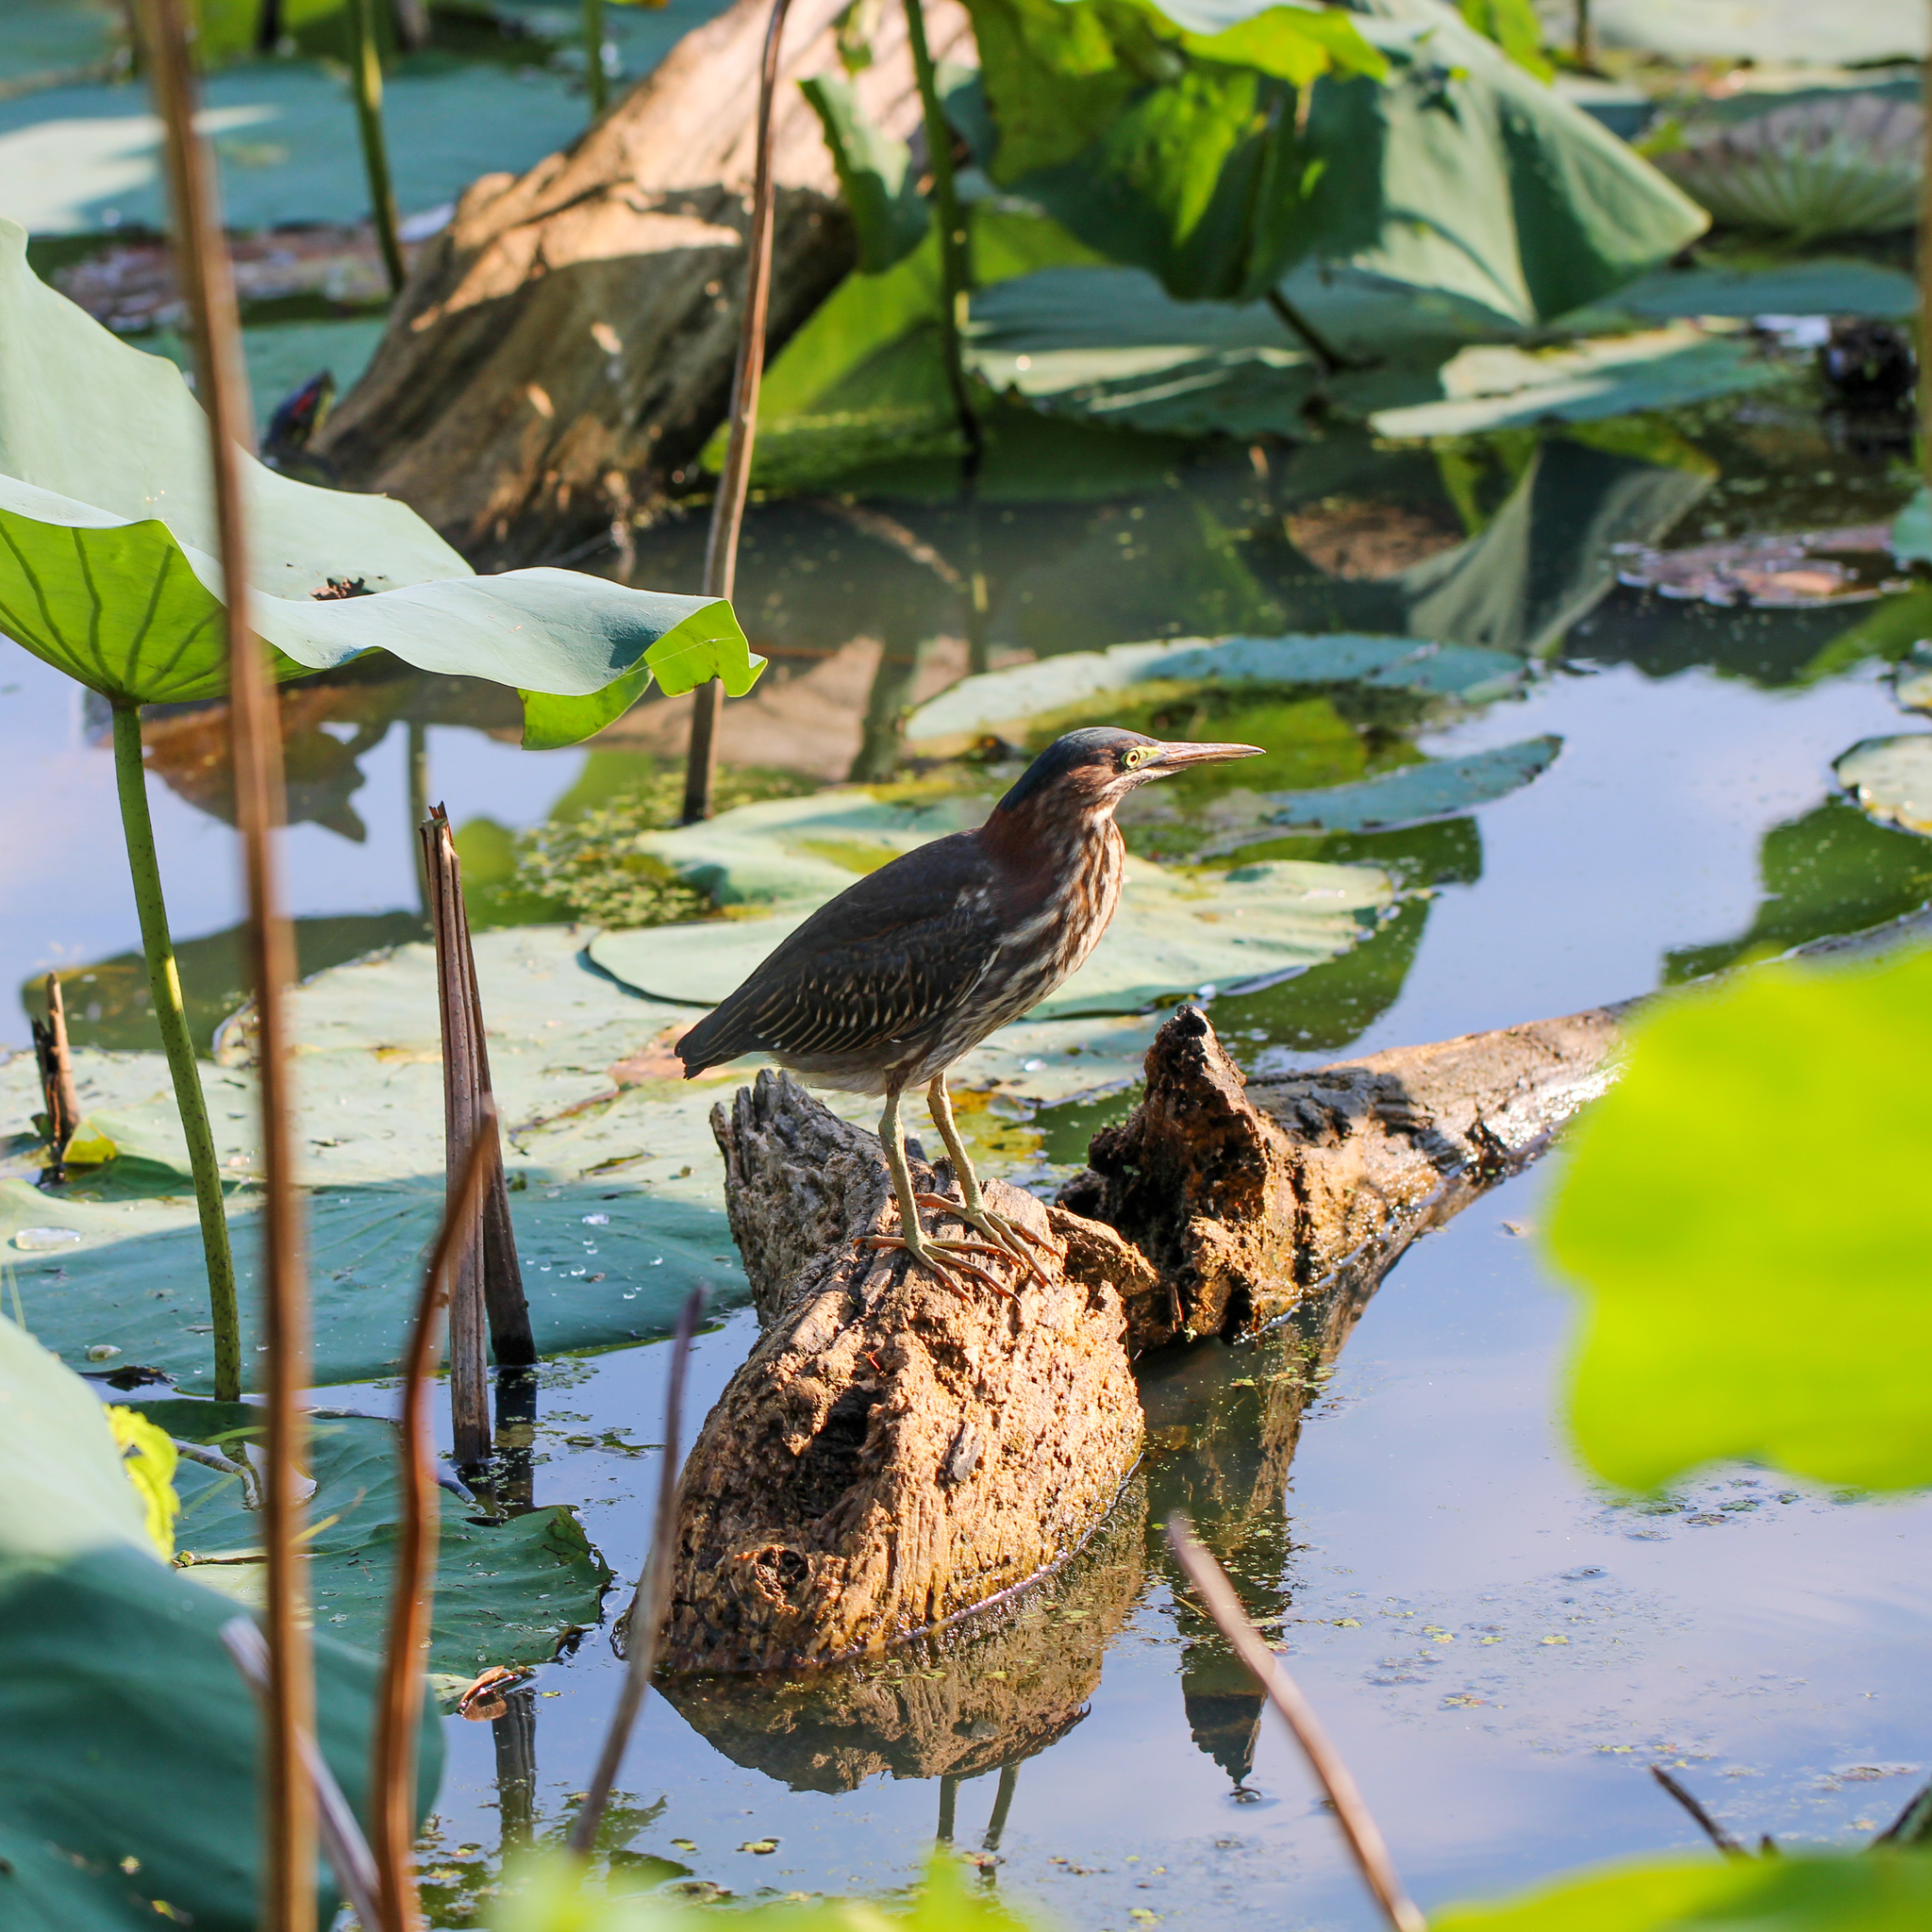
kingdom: Animalia
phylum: Chordata
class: Aves
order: Pelecaniformes
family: Ardeidae
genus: Butorides
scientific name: Butorides virescens
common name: Green heron
